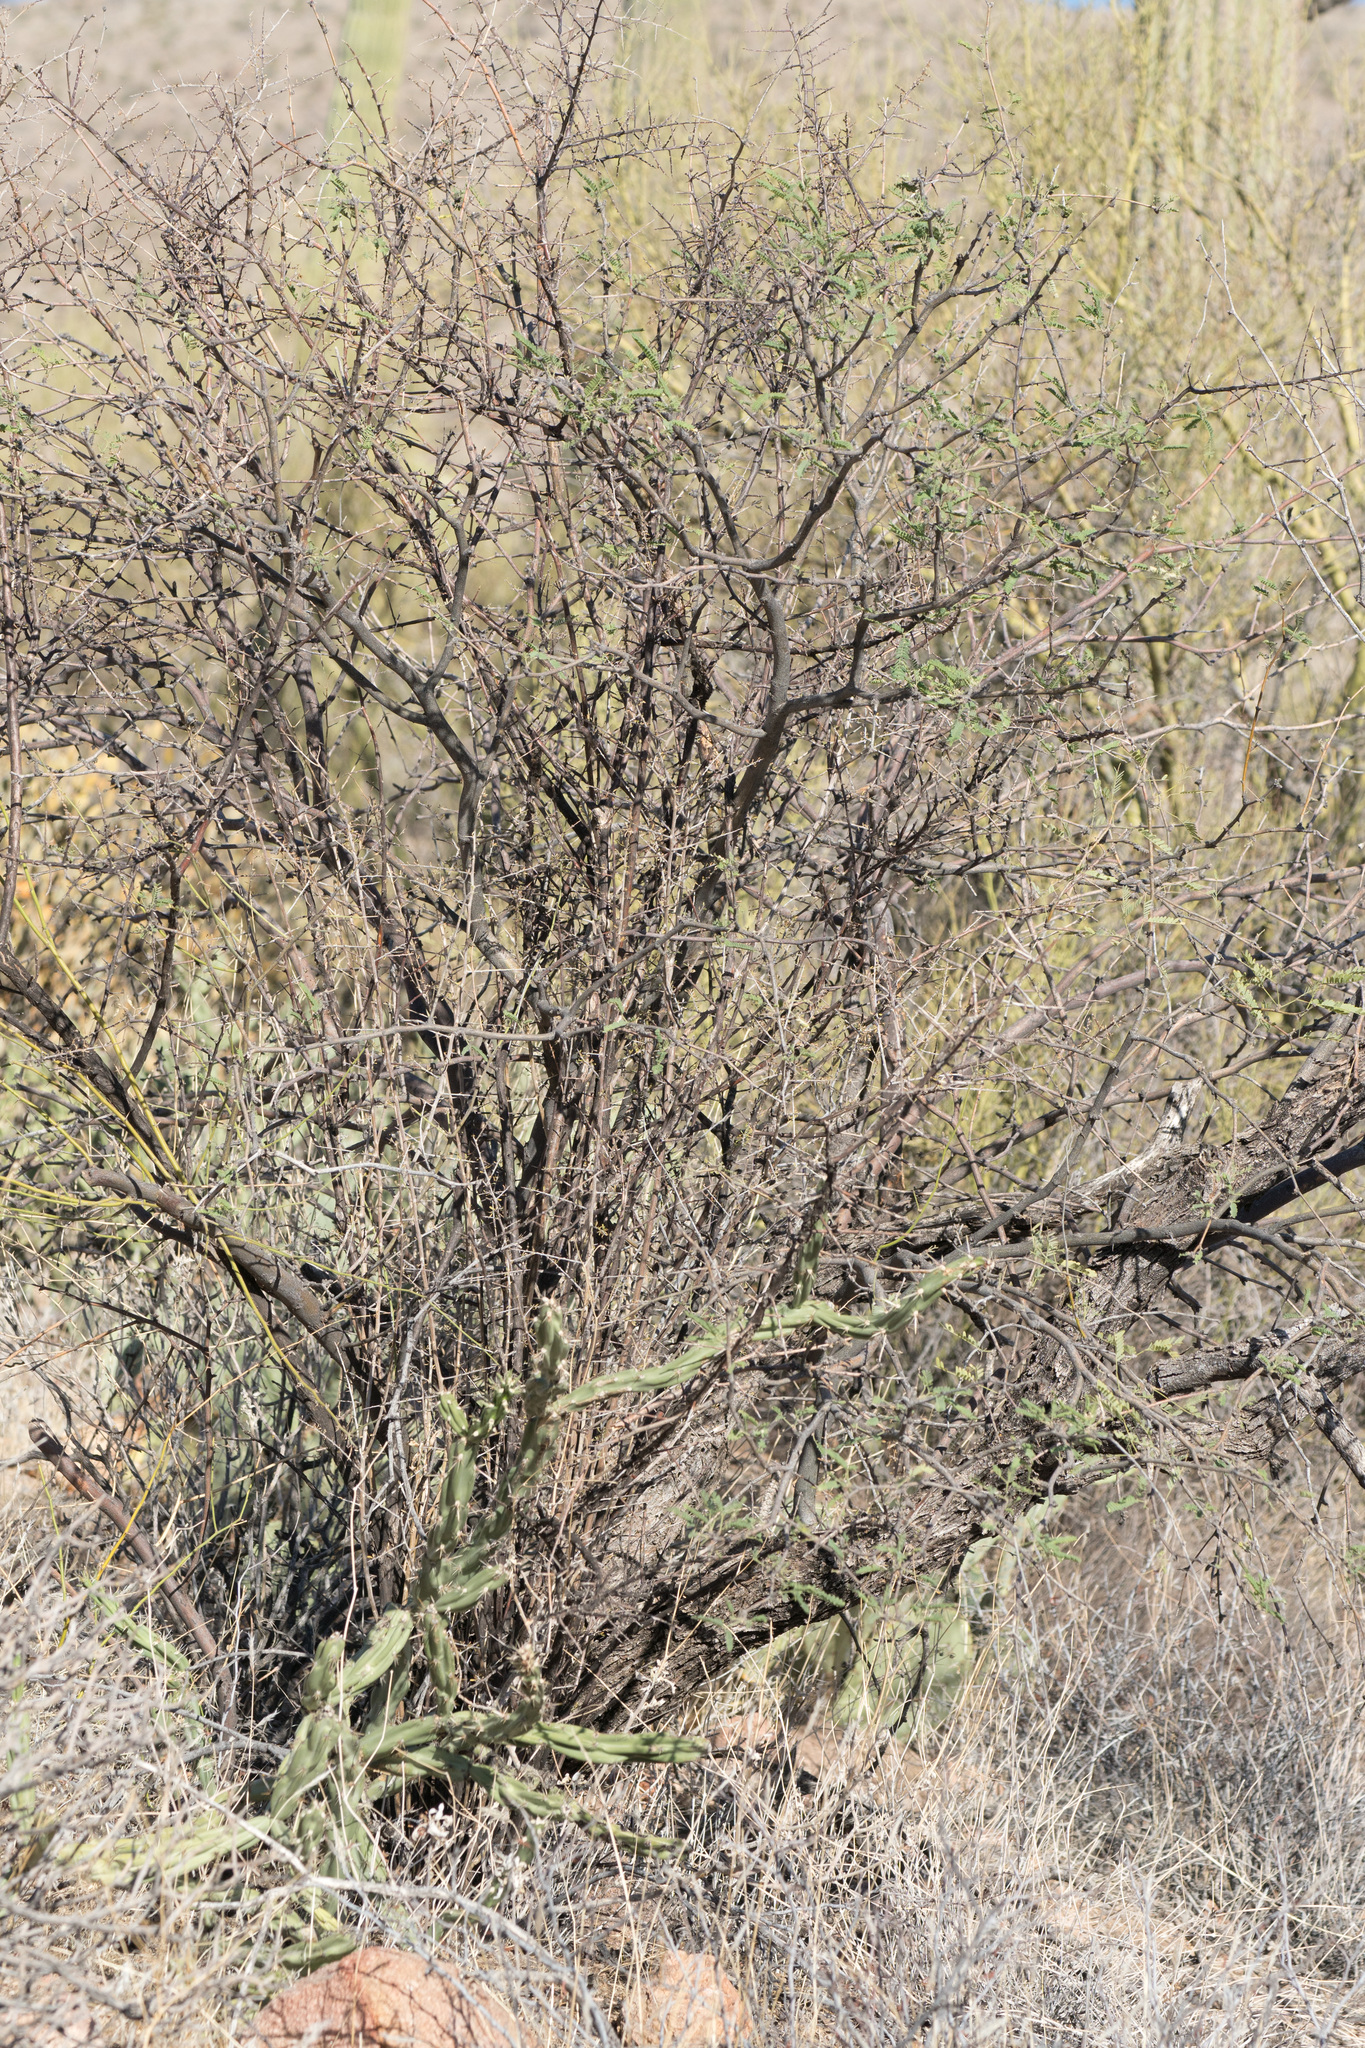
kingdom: Plantae
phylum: Tracheophyta
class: Magnoliopsida
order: Fabales
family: Fabaceae
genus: Prosopis
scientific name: Prosopis velutina
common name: Velvet mesquite
